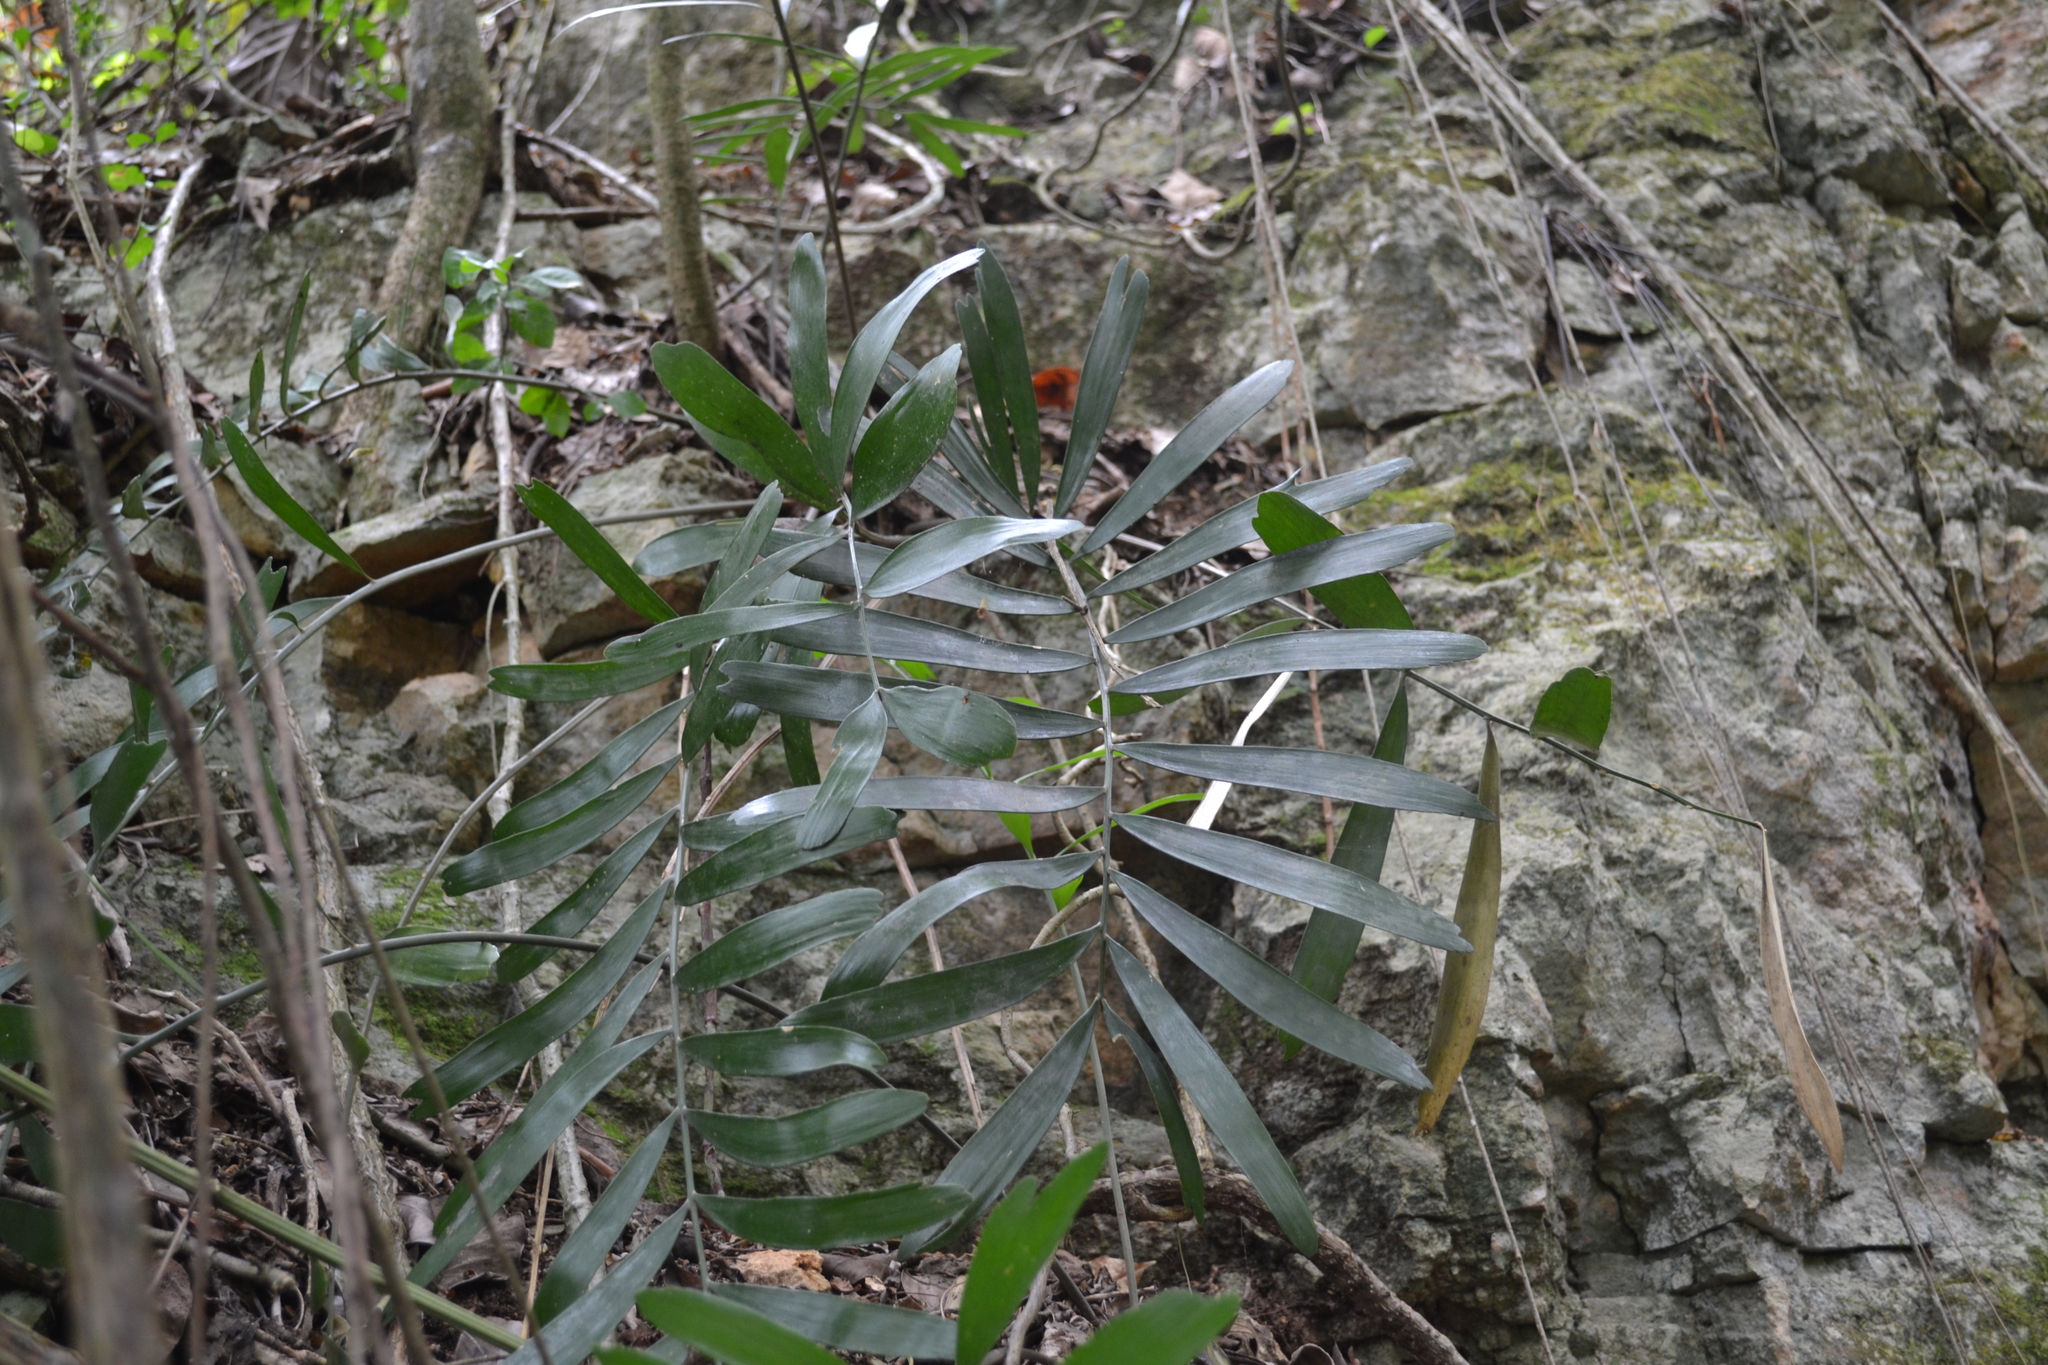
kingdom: Plantae
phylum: Tracheophyta
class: Cycadopsida
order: Cycadales
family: Zamiaceae
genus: Zamia
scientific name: Zamia erosa
